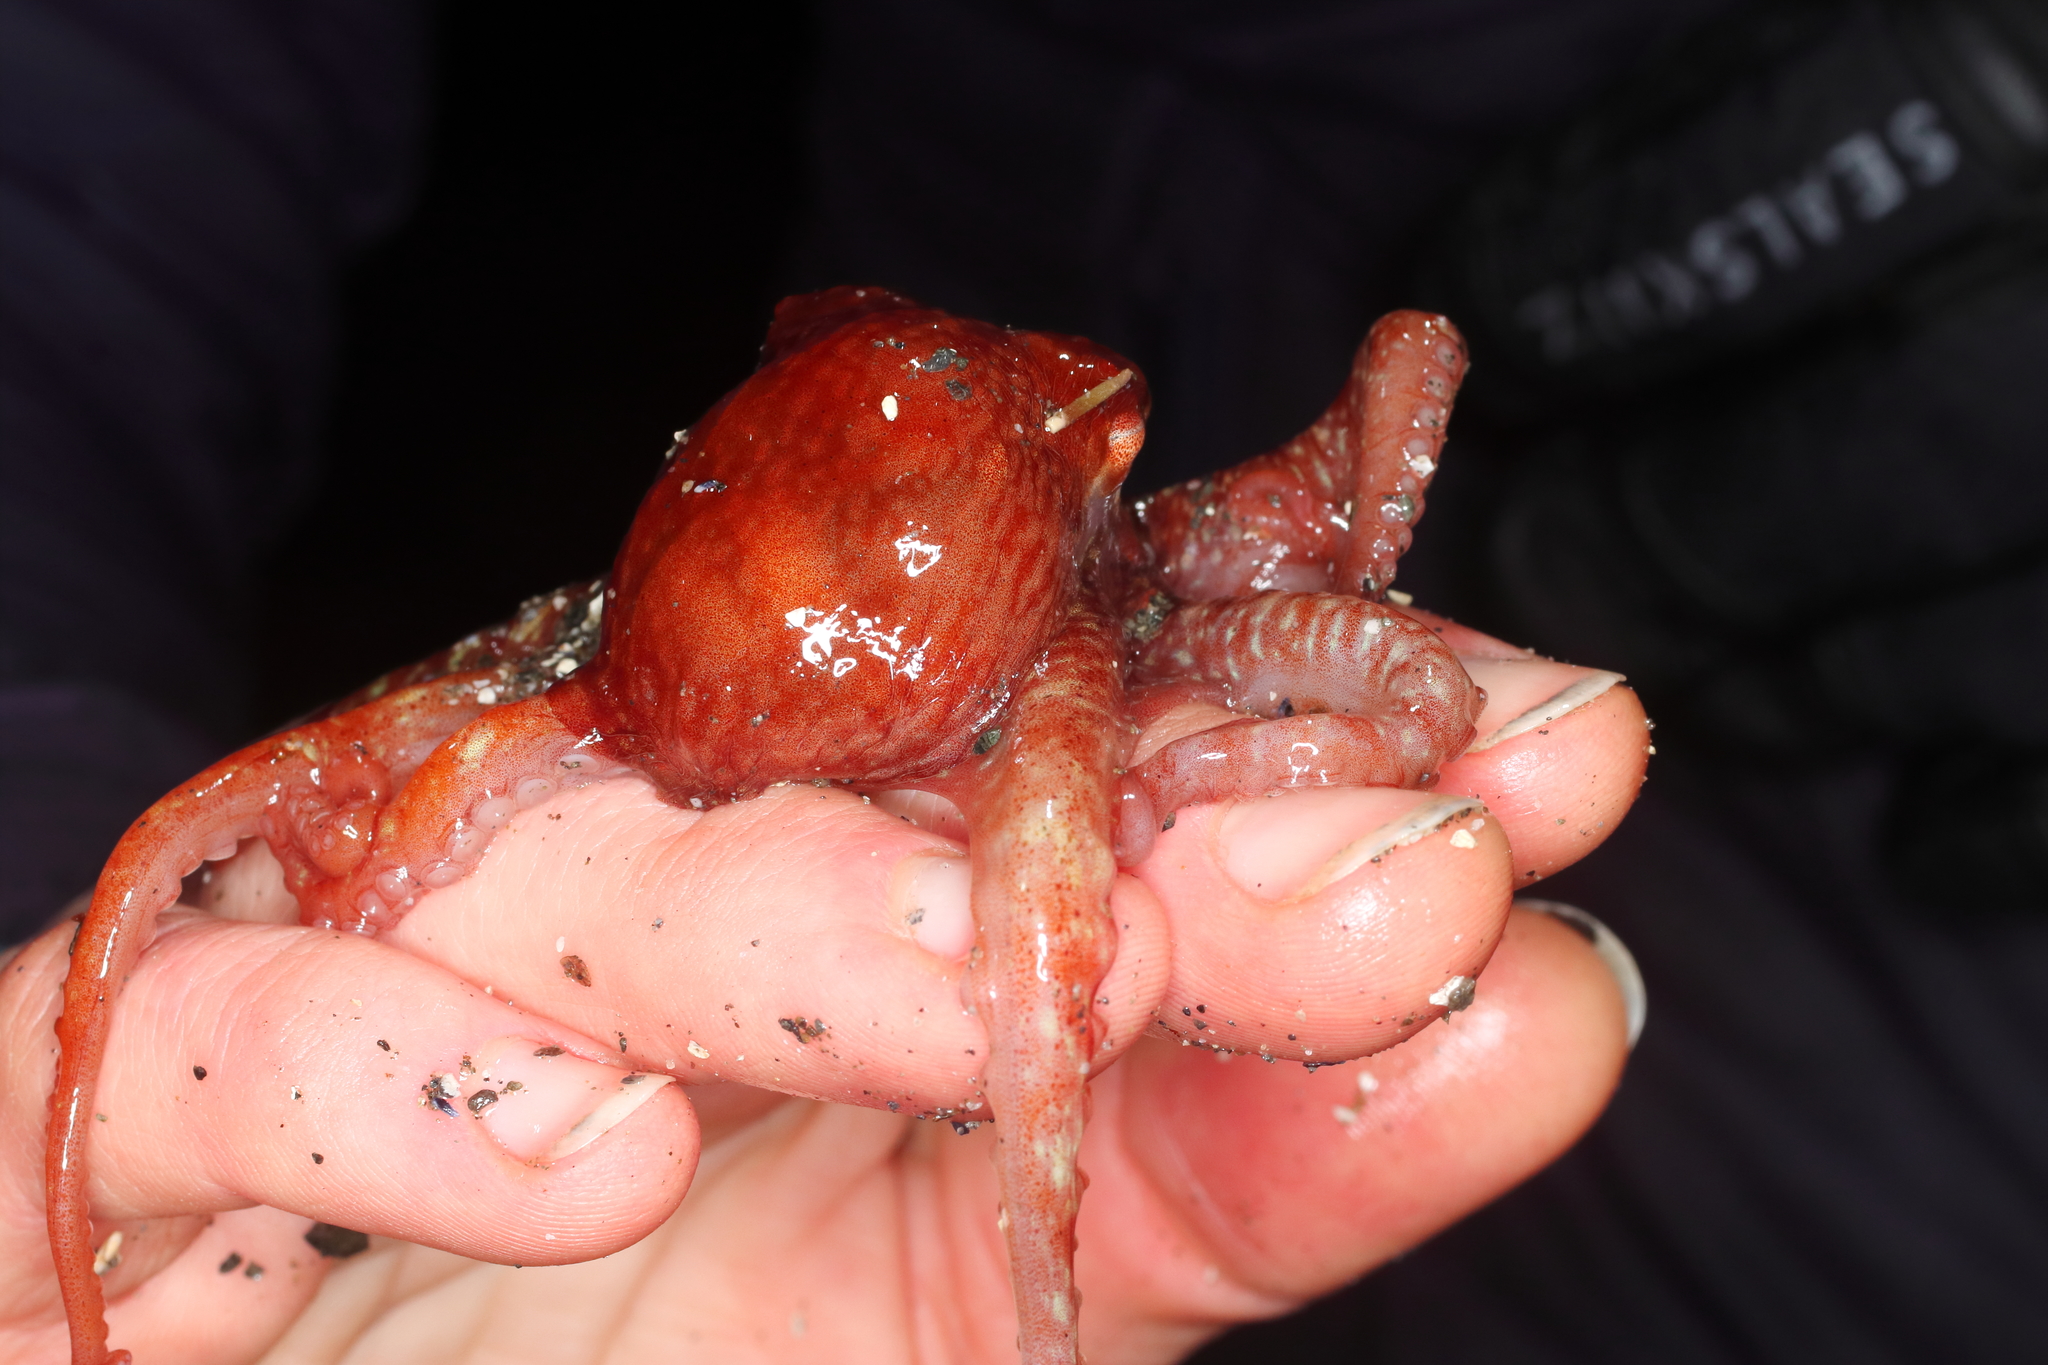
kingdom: Animalia
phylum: Mollusca
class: Cephalopoda
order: Octopoda
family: Enteroctopodidae
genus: Enteroctopus
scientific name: Enteroctopus dofleini
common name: Giant north pacific octopus
